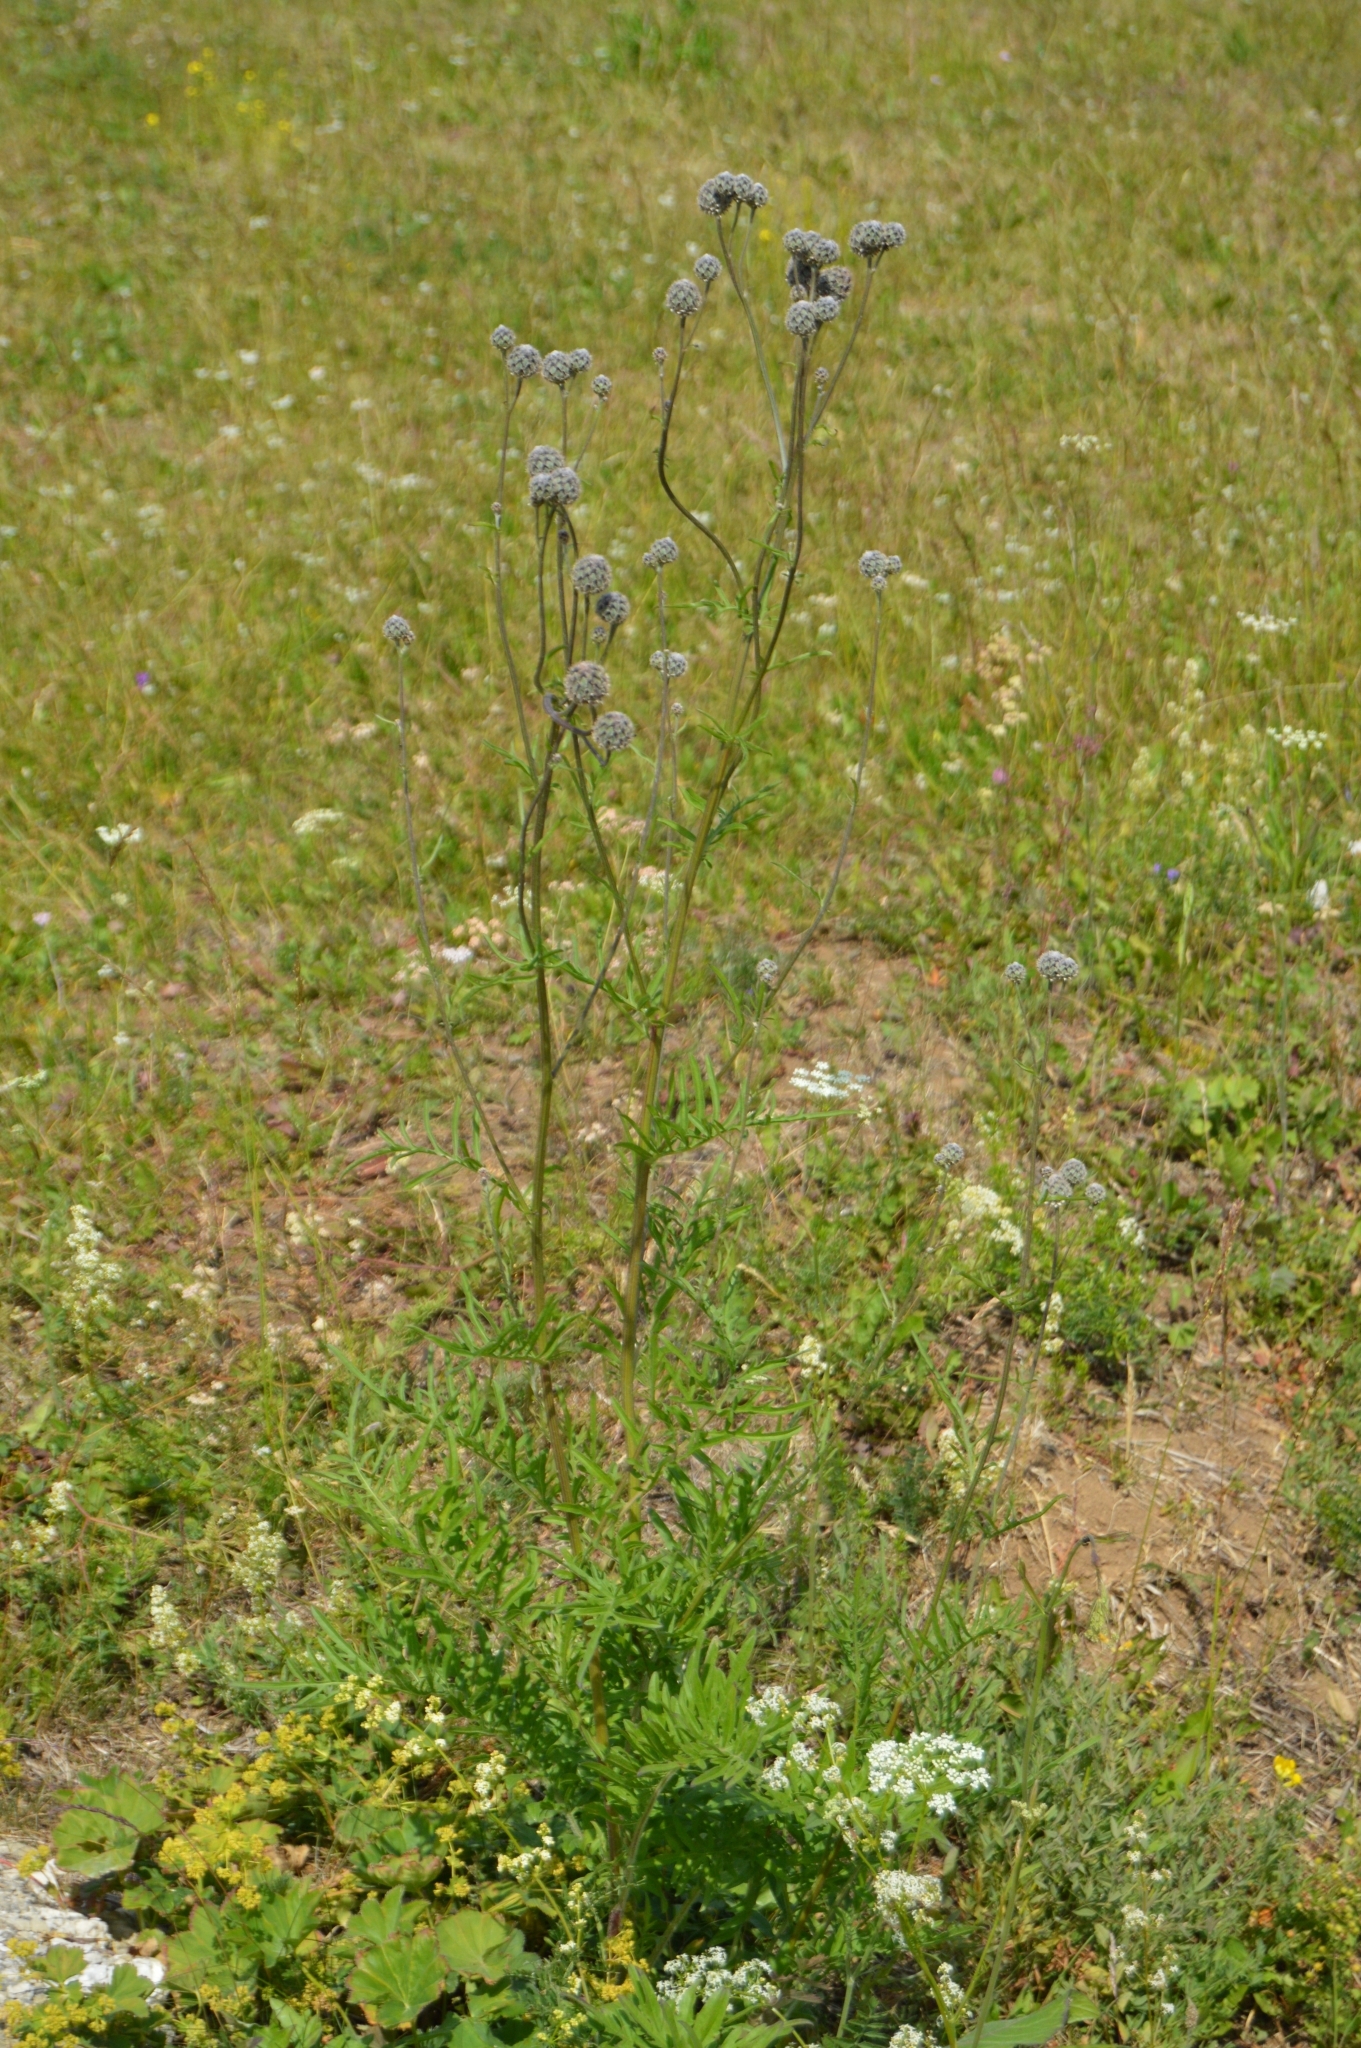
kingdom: Plantae
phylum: Tracheophyta
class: Magnoliopsida
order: Asterales
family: Asteraceae
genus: Centaurea
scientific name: Centaurea scabiosa
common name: Greater knapweed
